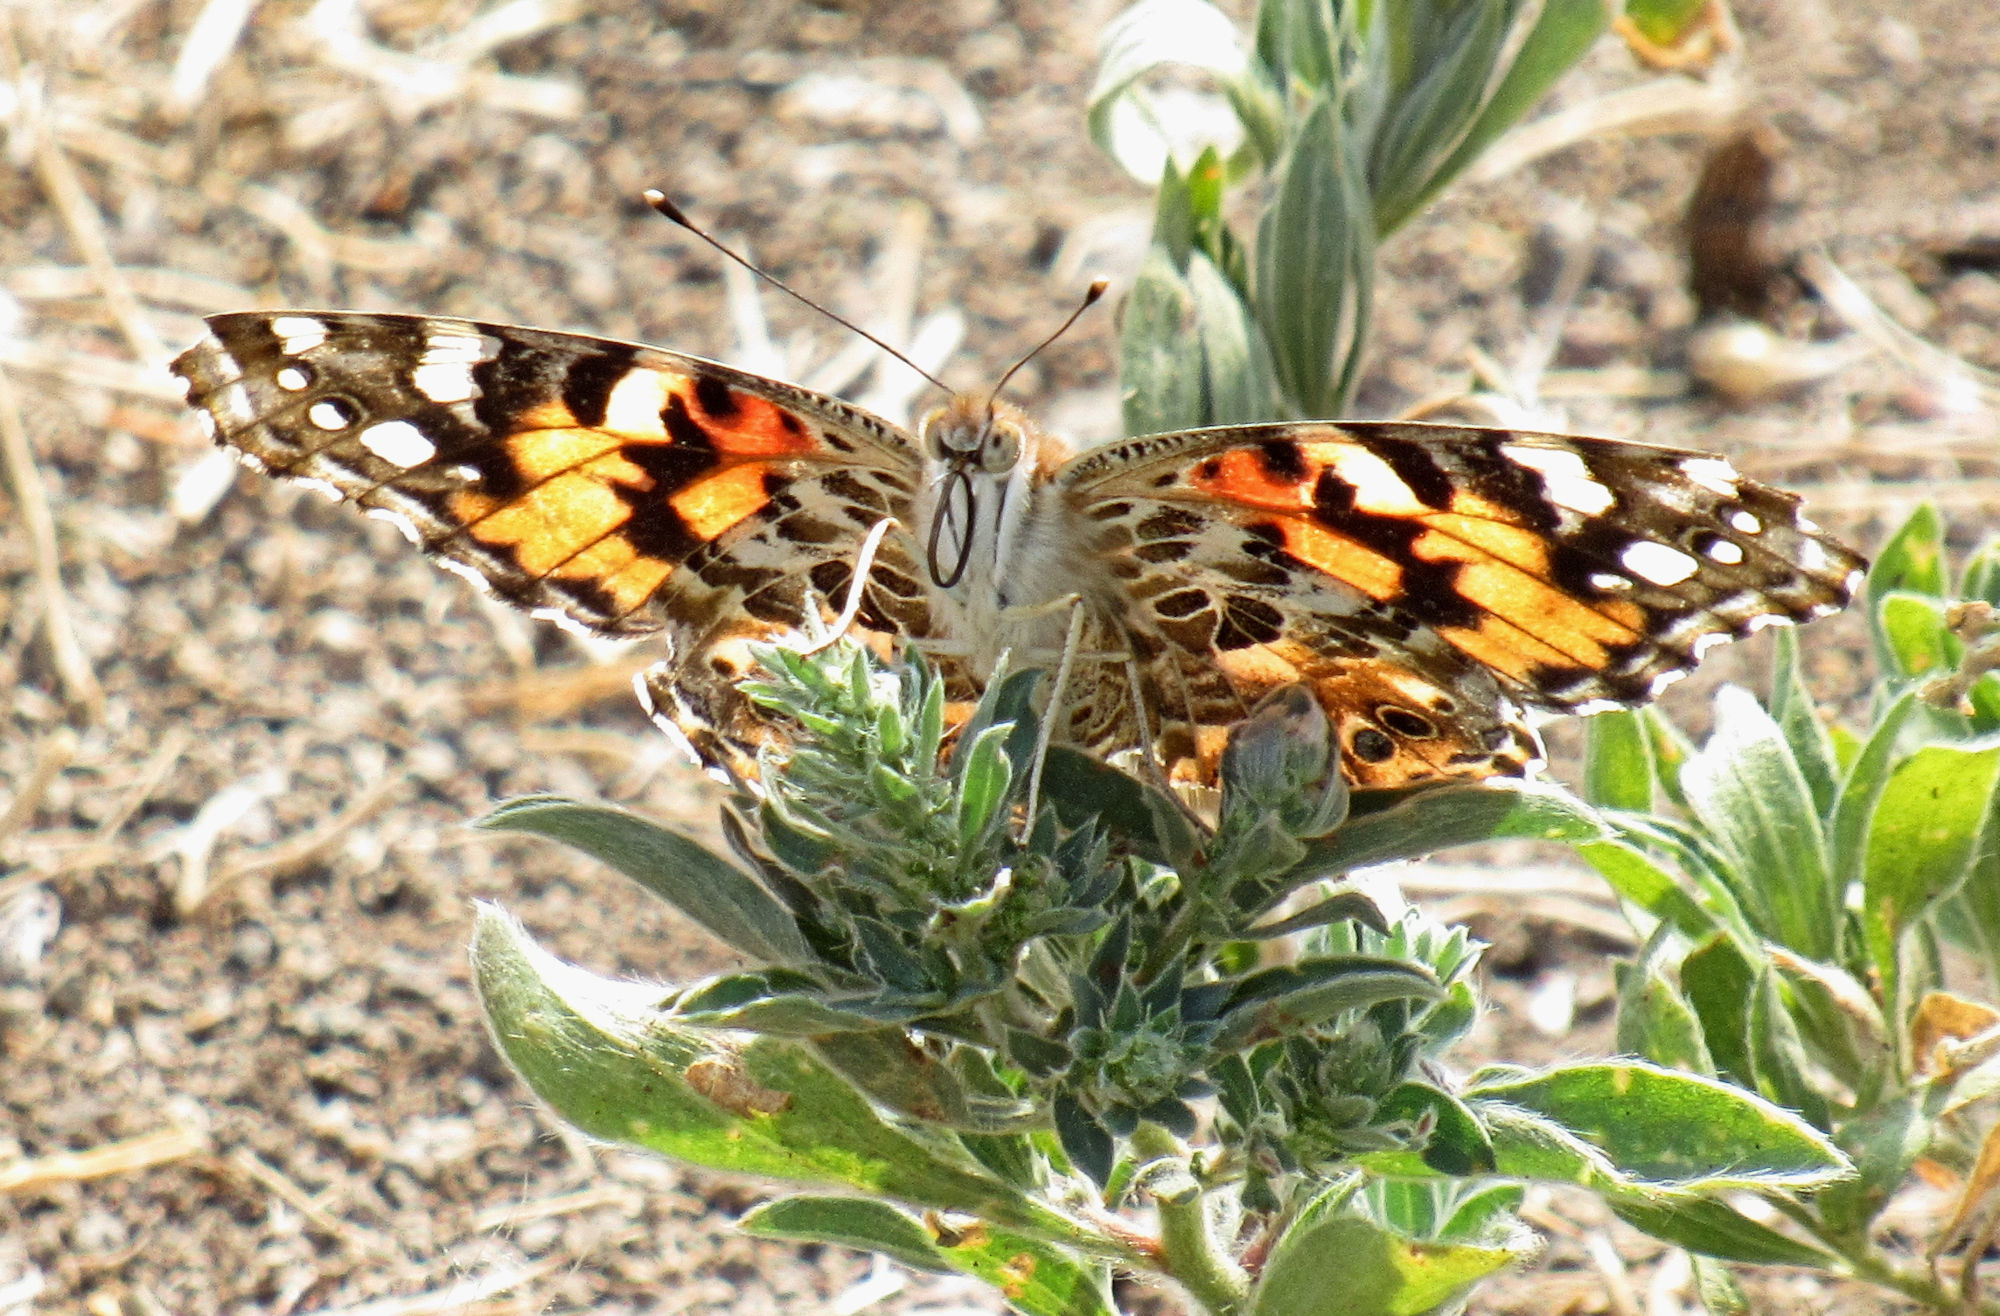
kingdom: Animalia
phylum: Arthropoda
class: Insecta
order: Lepidoptera
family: Nymphalidae
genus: Vanessa
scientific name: Vanessa cardui
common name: Painted lady
